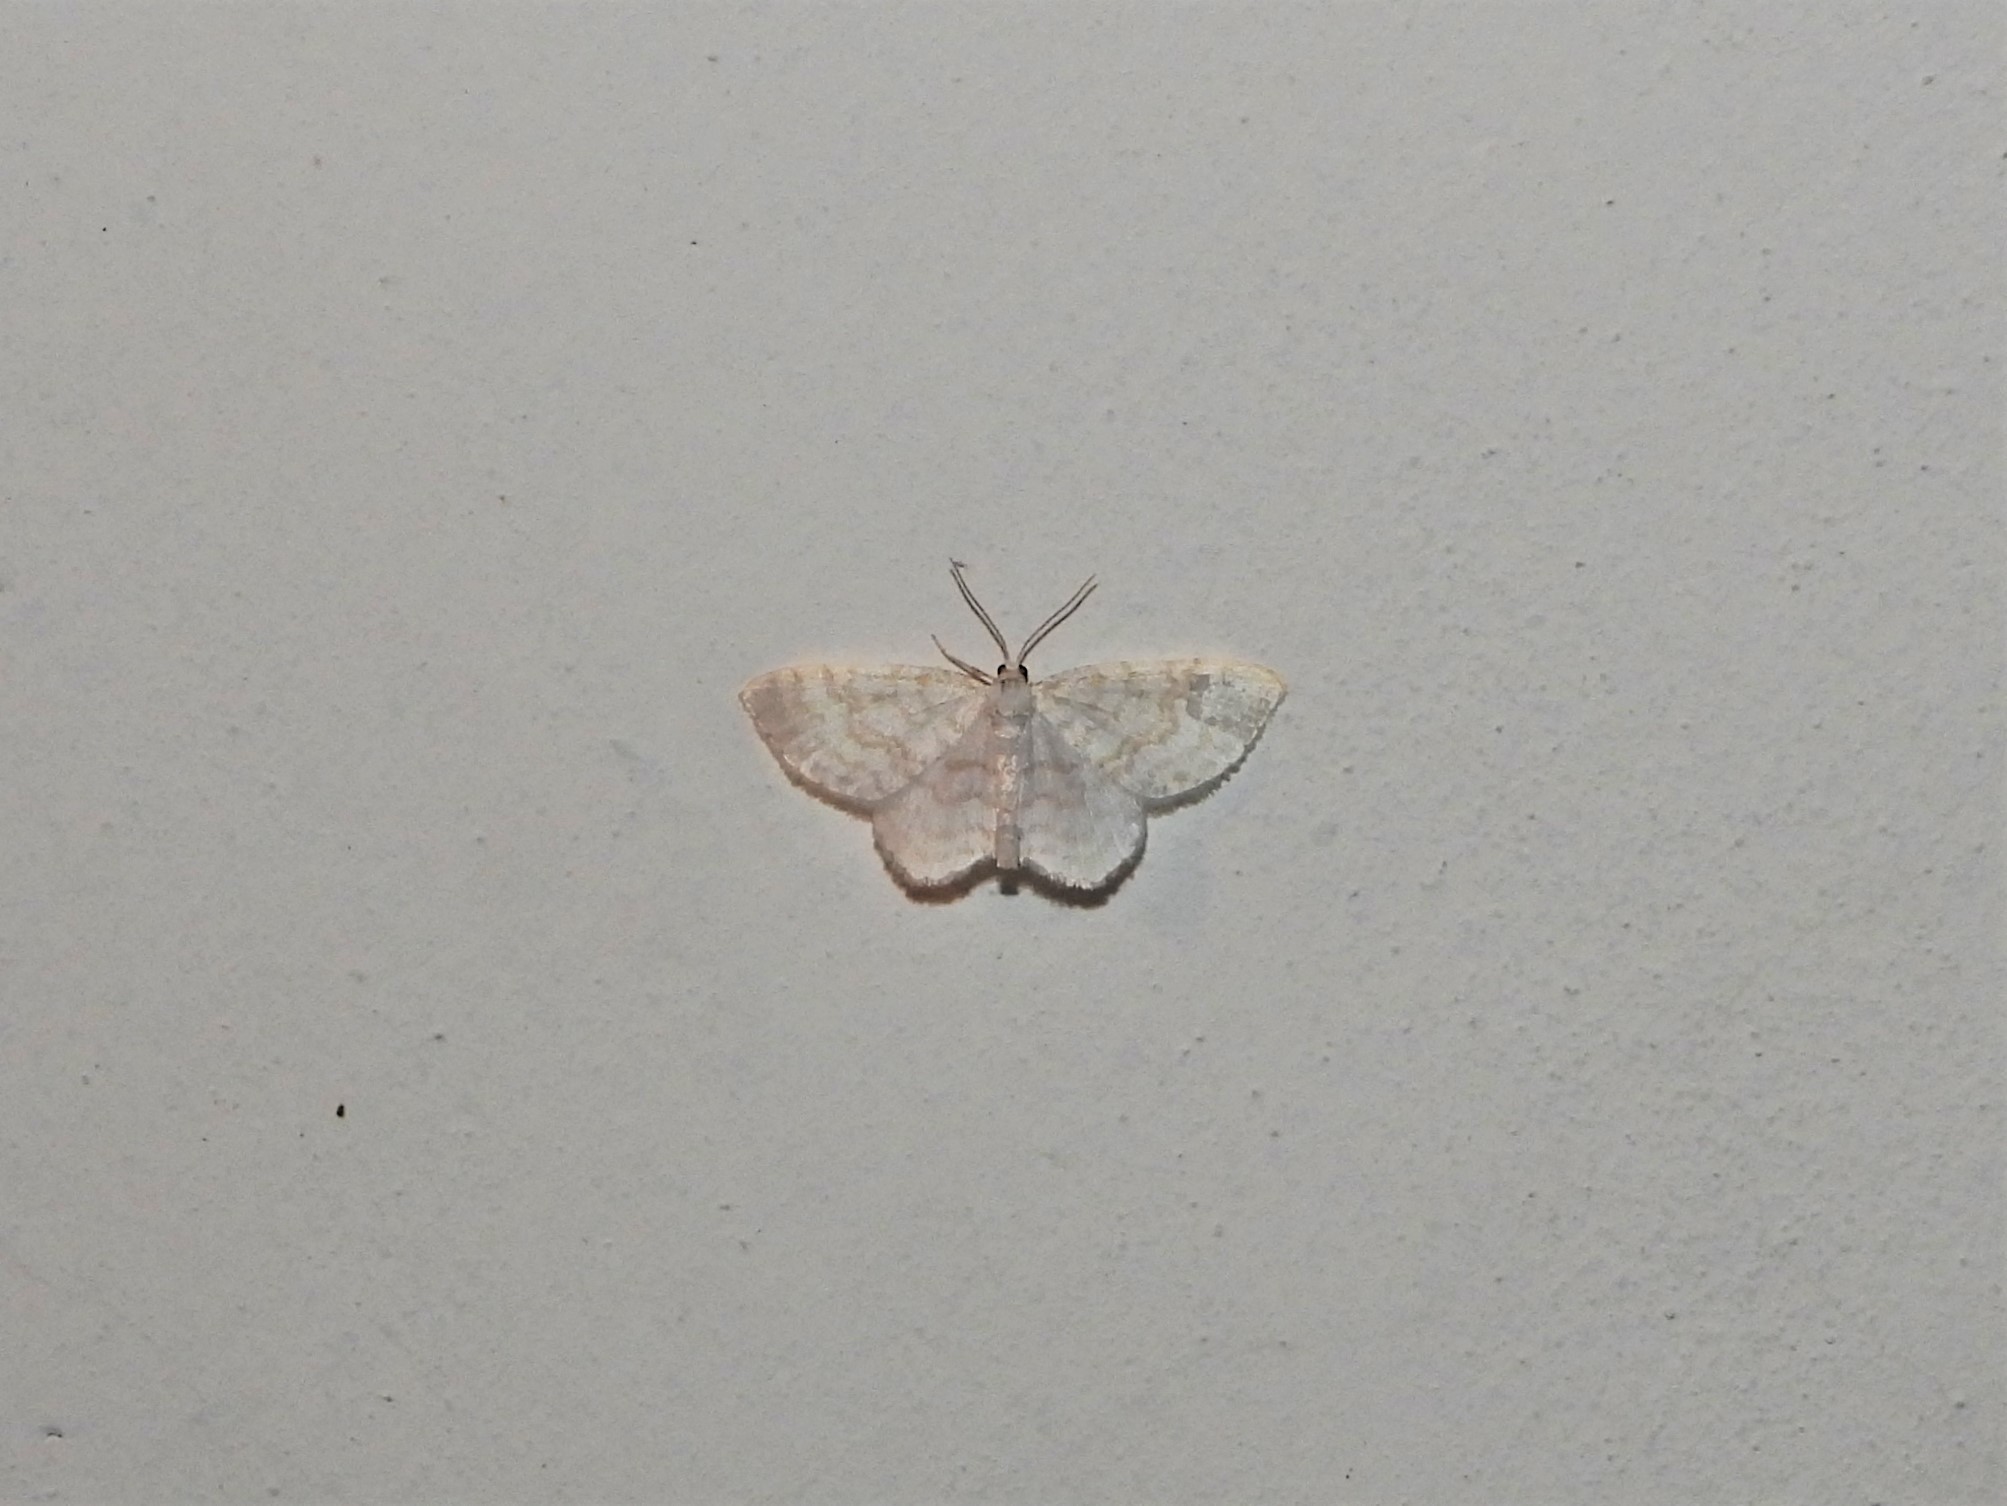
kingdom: Animalia
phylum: Arthropoda
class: Insecta
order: Lepidoptera
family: Geometridae
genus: Asthena
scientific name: Asthena albulata
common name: Small white wave
